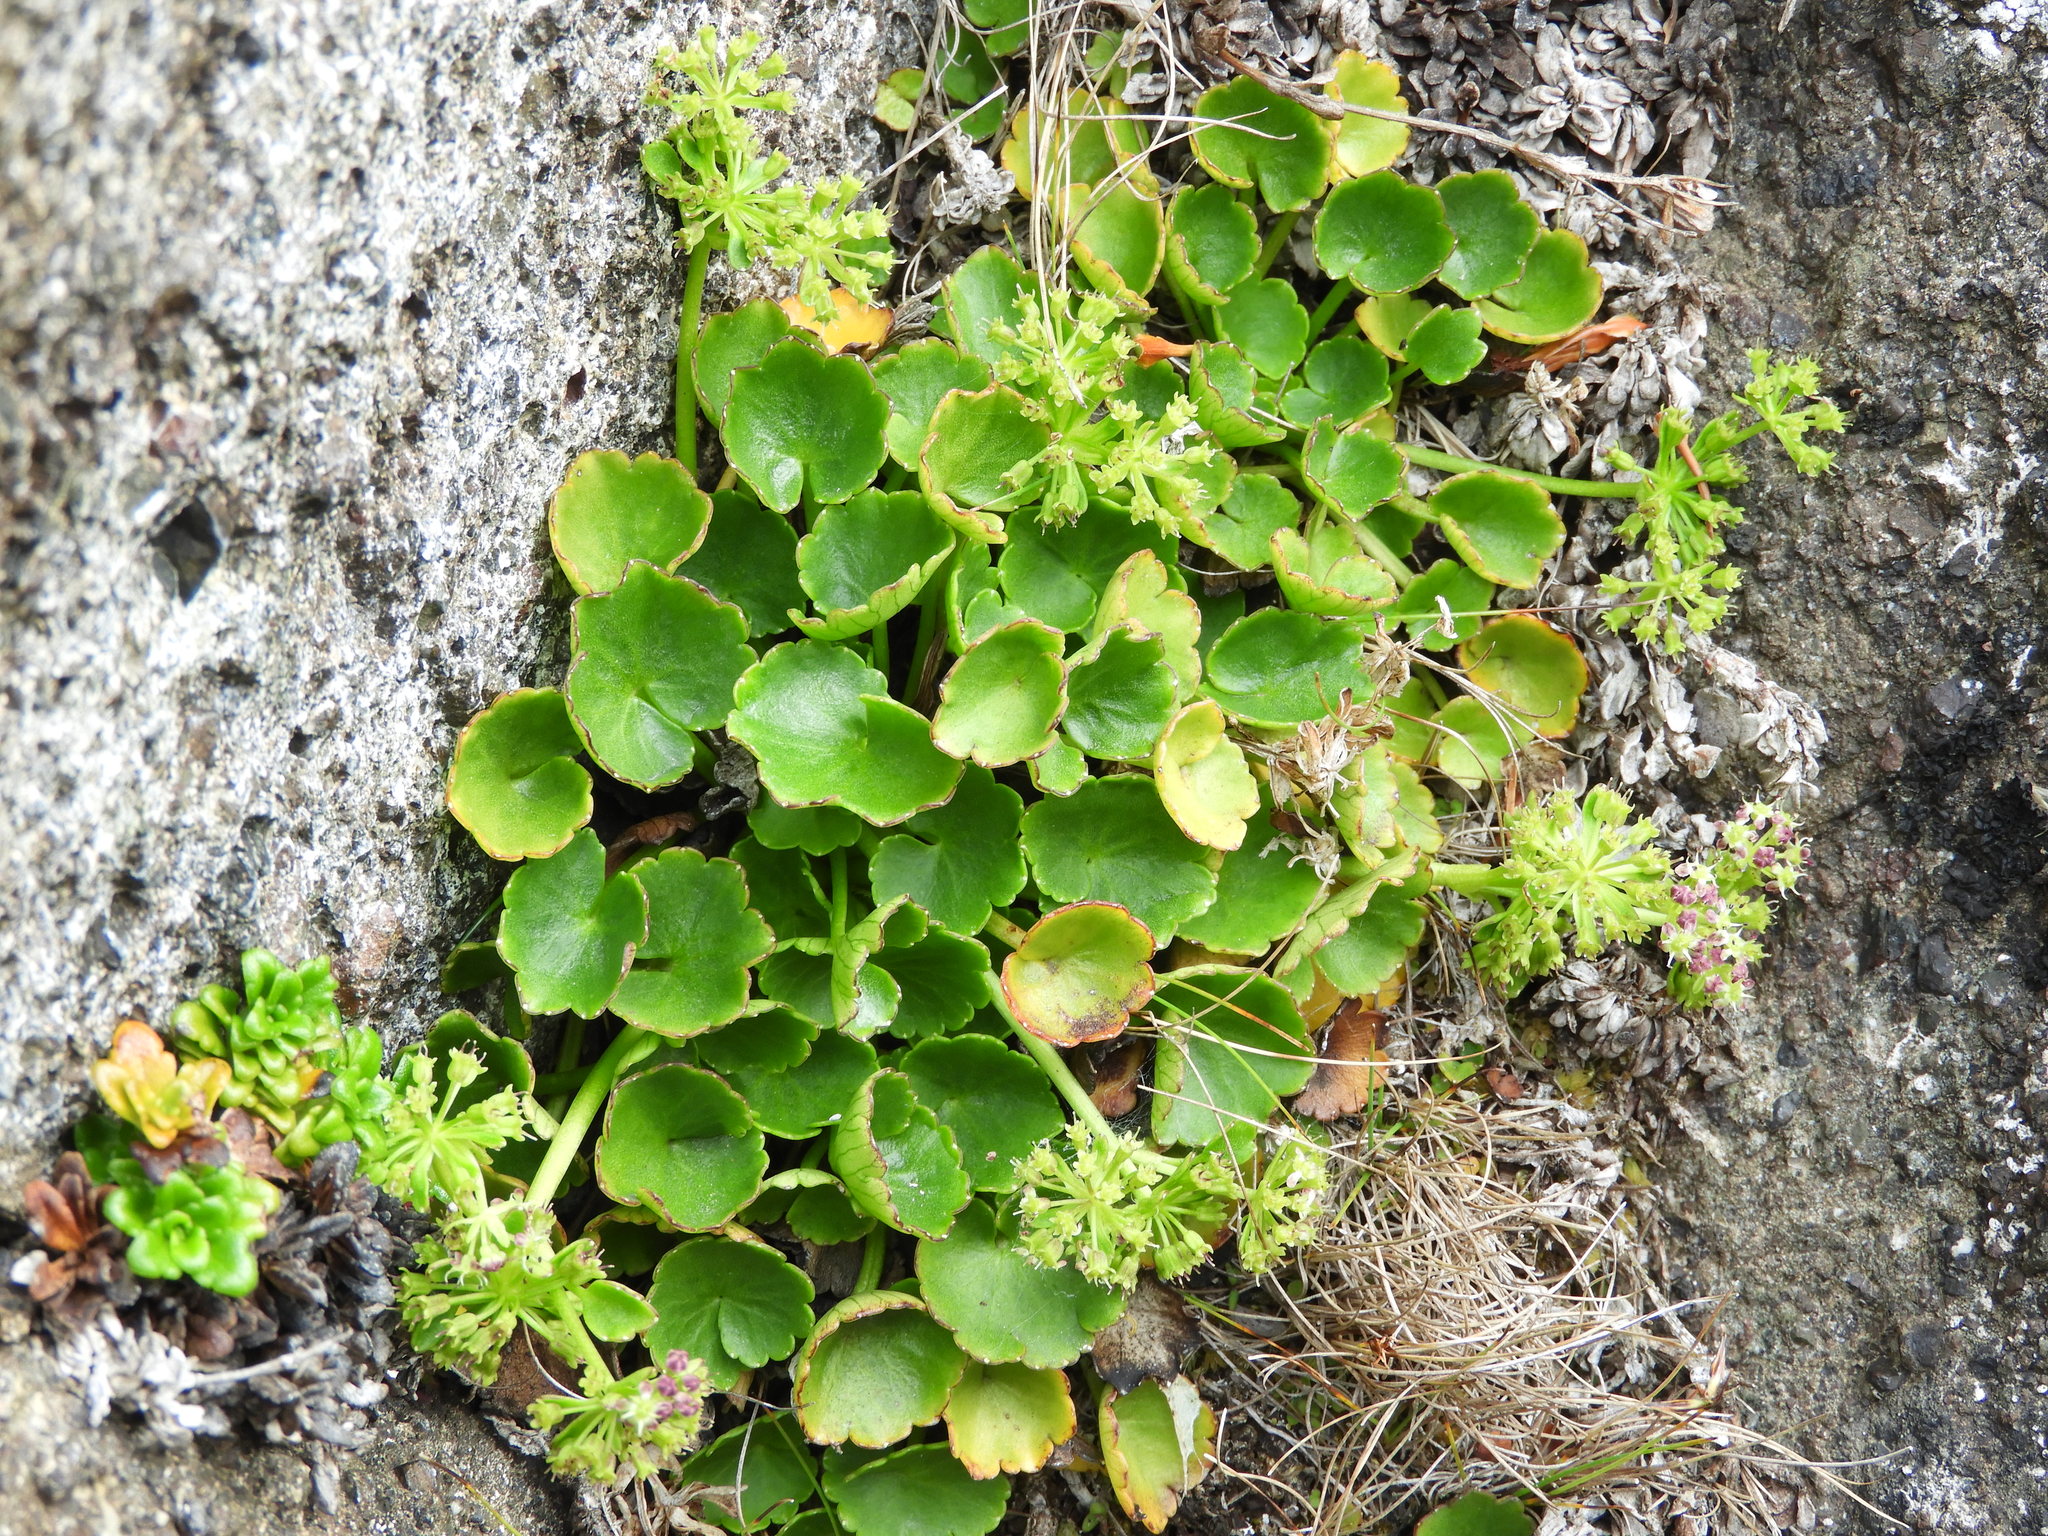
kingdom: Plantae
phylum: Tracheophyta
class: Magnoliopsida
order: Apiales
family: Apiaceae
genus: Azorella
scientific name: Azorella haastii
